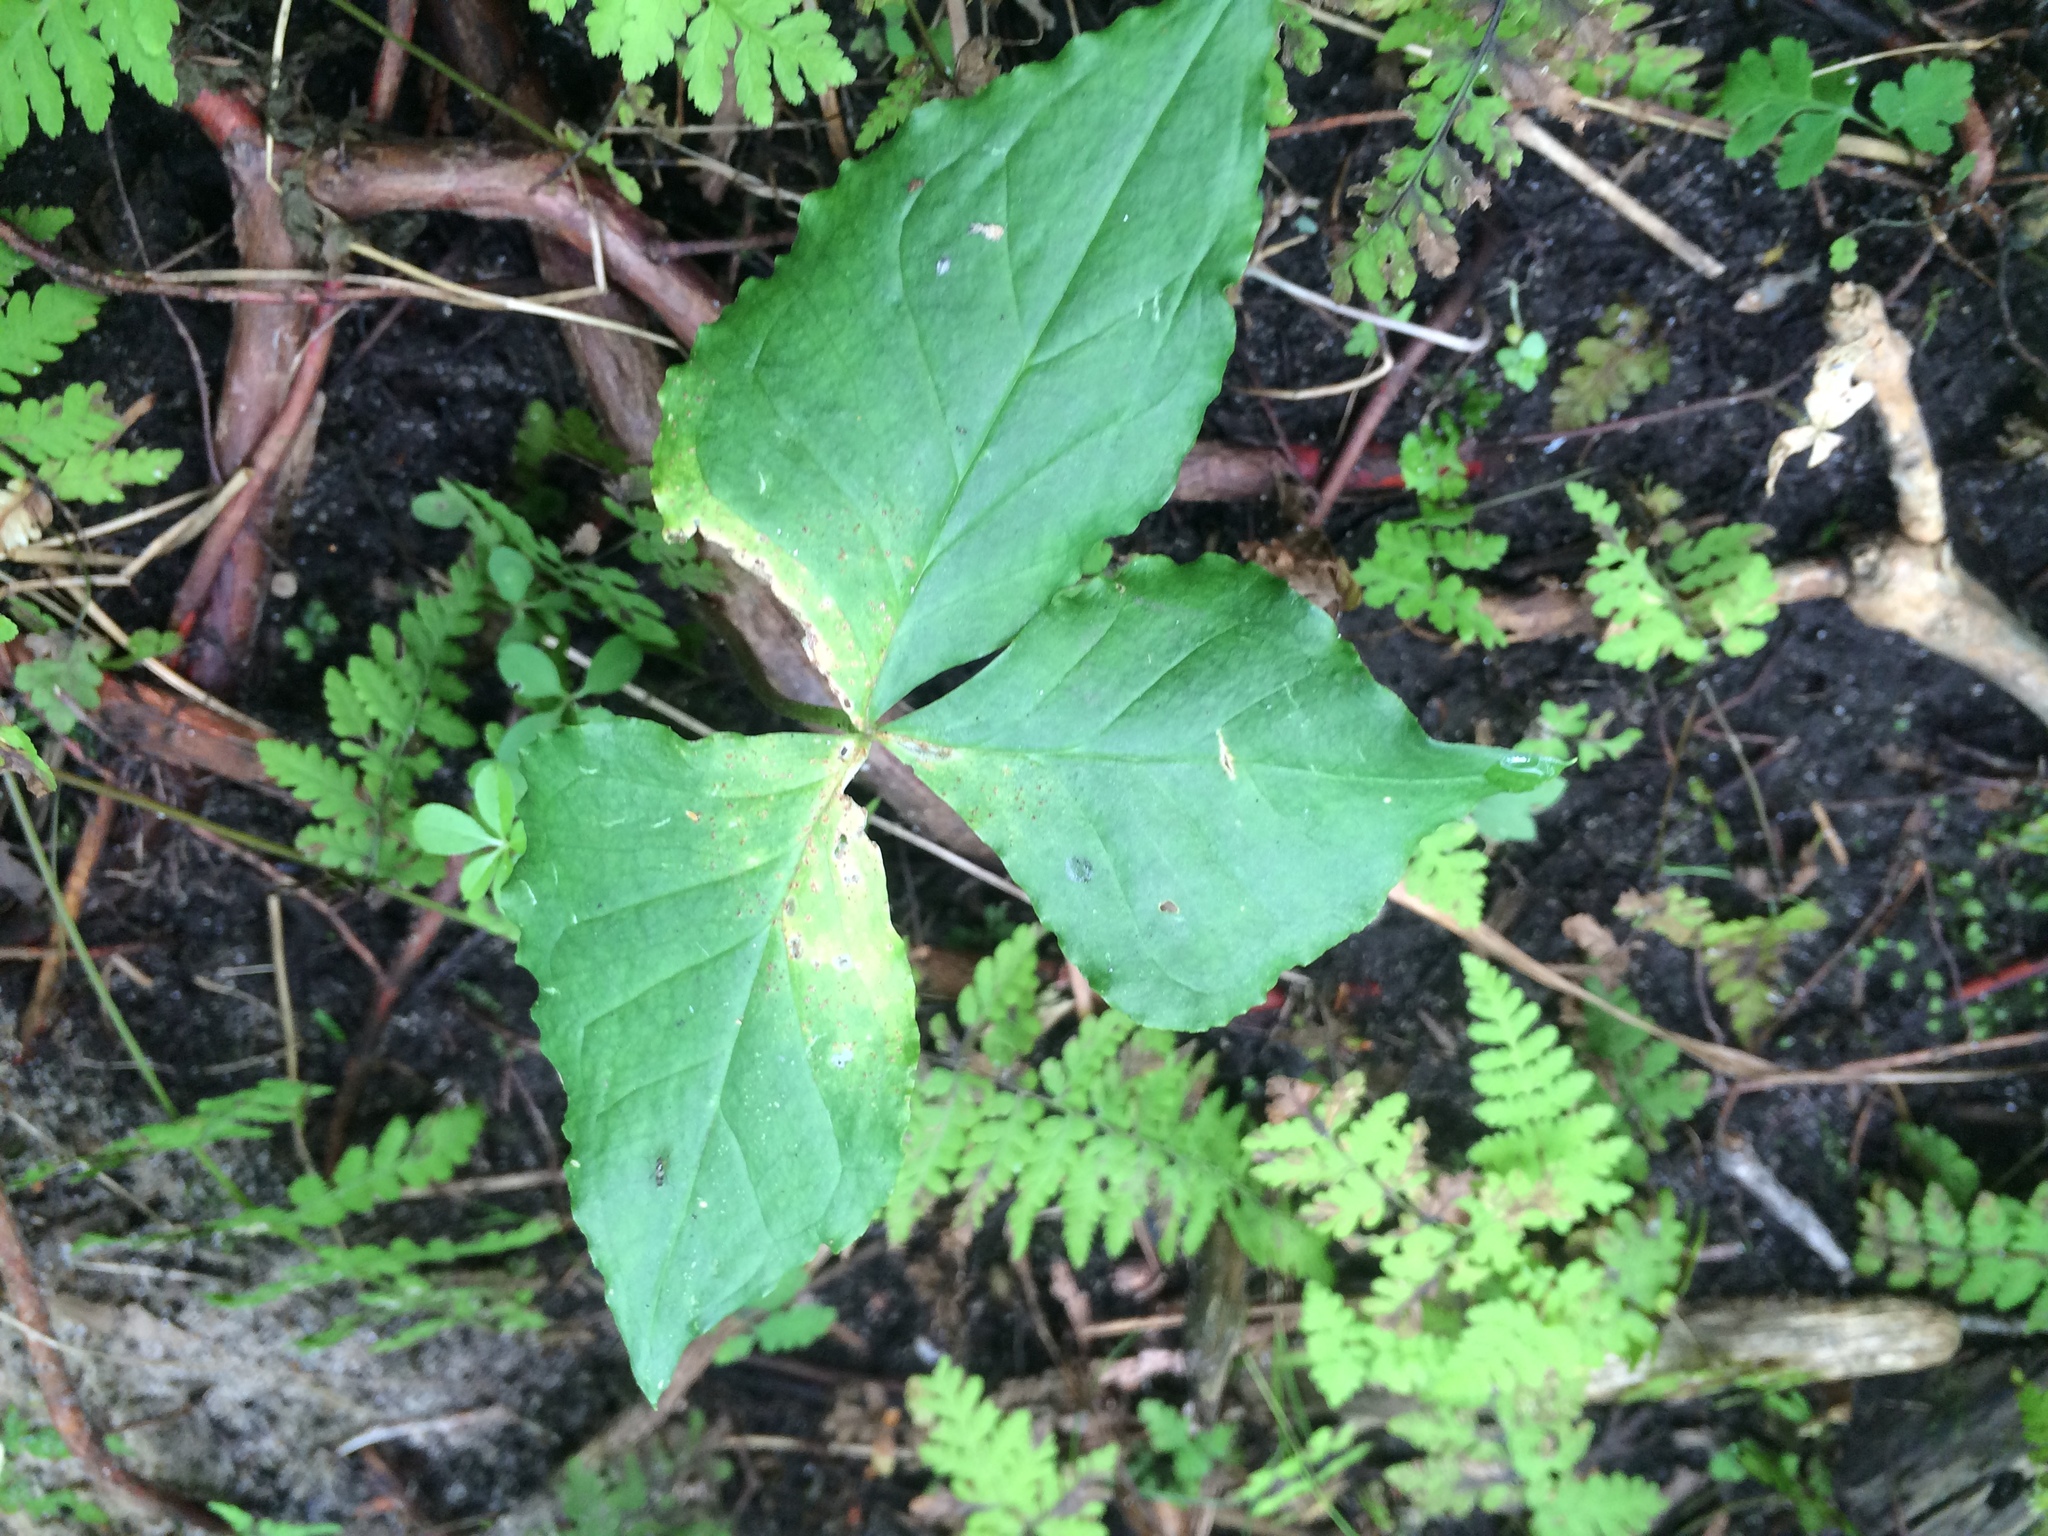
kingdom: Plantae
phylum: Tracheophyta
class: Liliopsida
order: Alismatales
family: Araceae
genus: Arisaema
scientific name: Arisaema triphyllum
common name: Jack-in-the-pulpit
